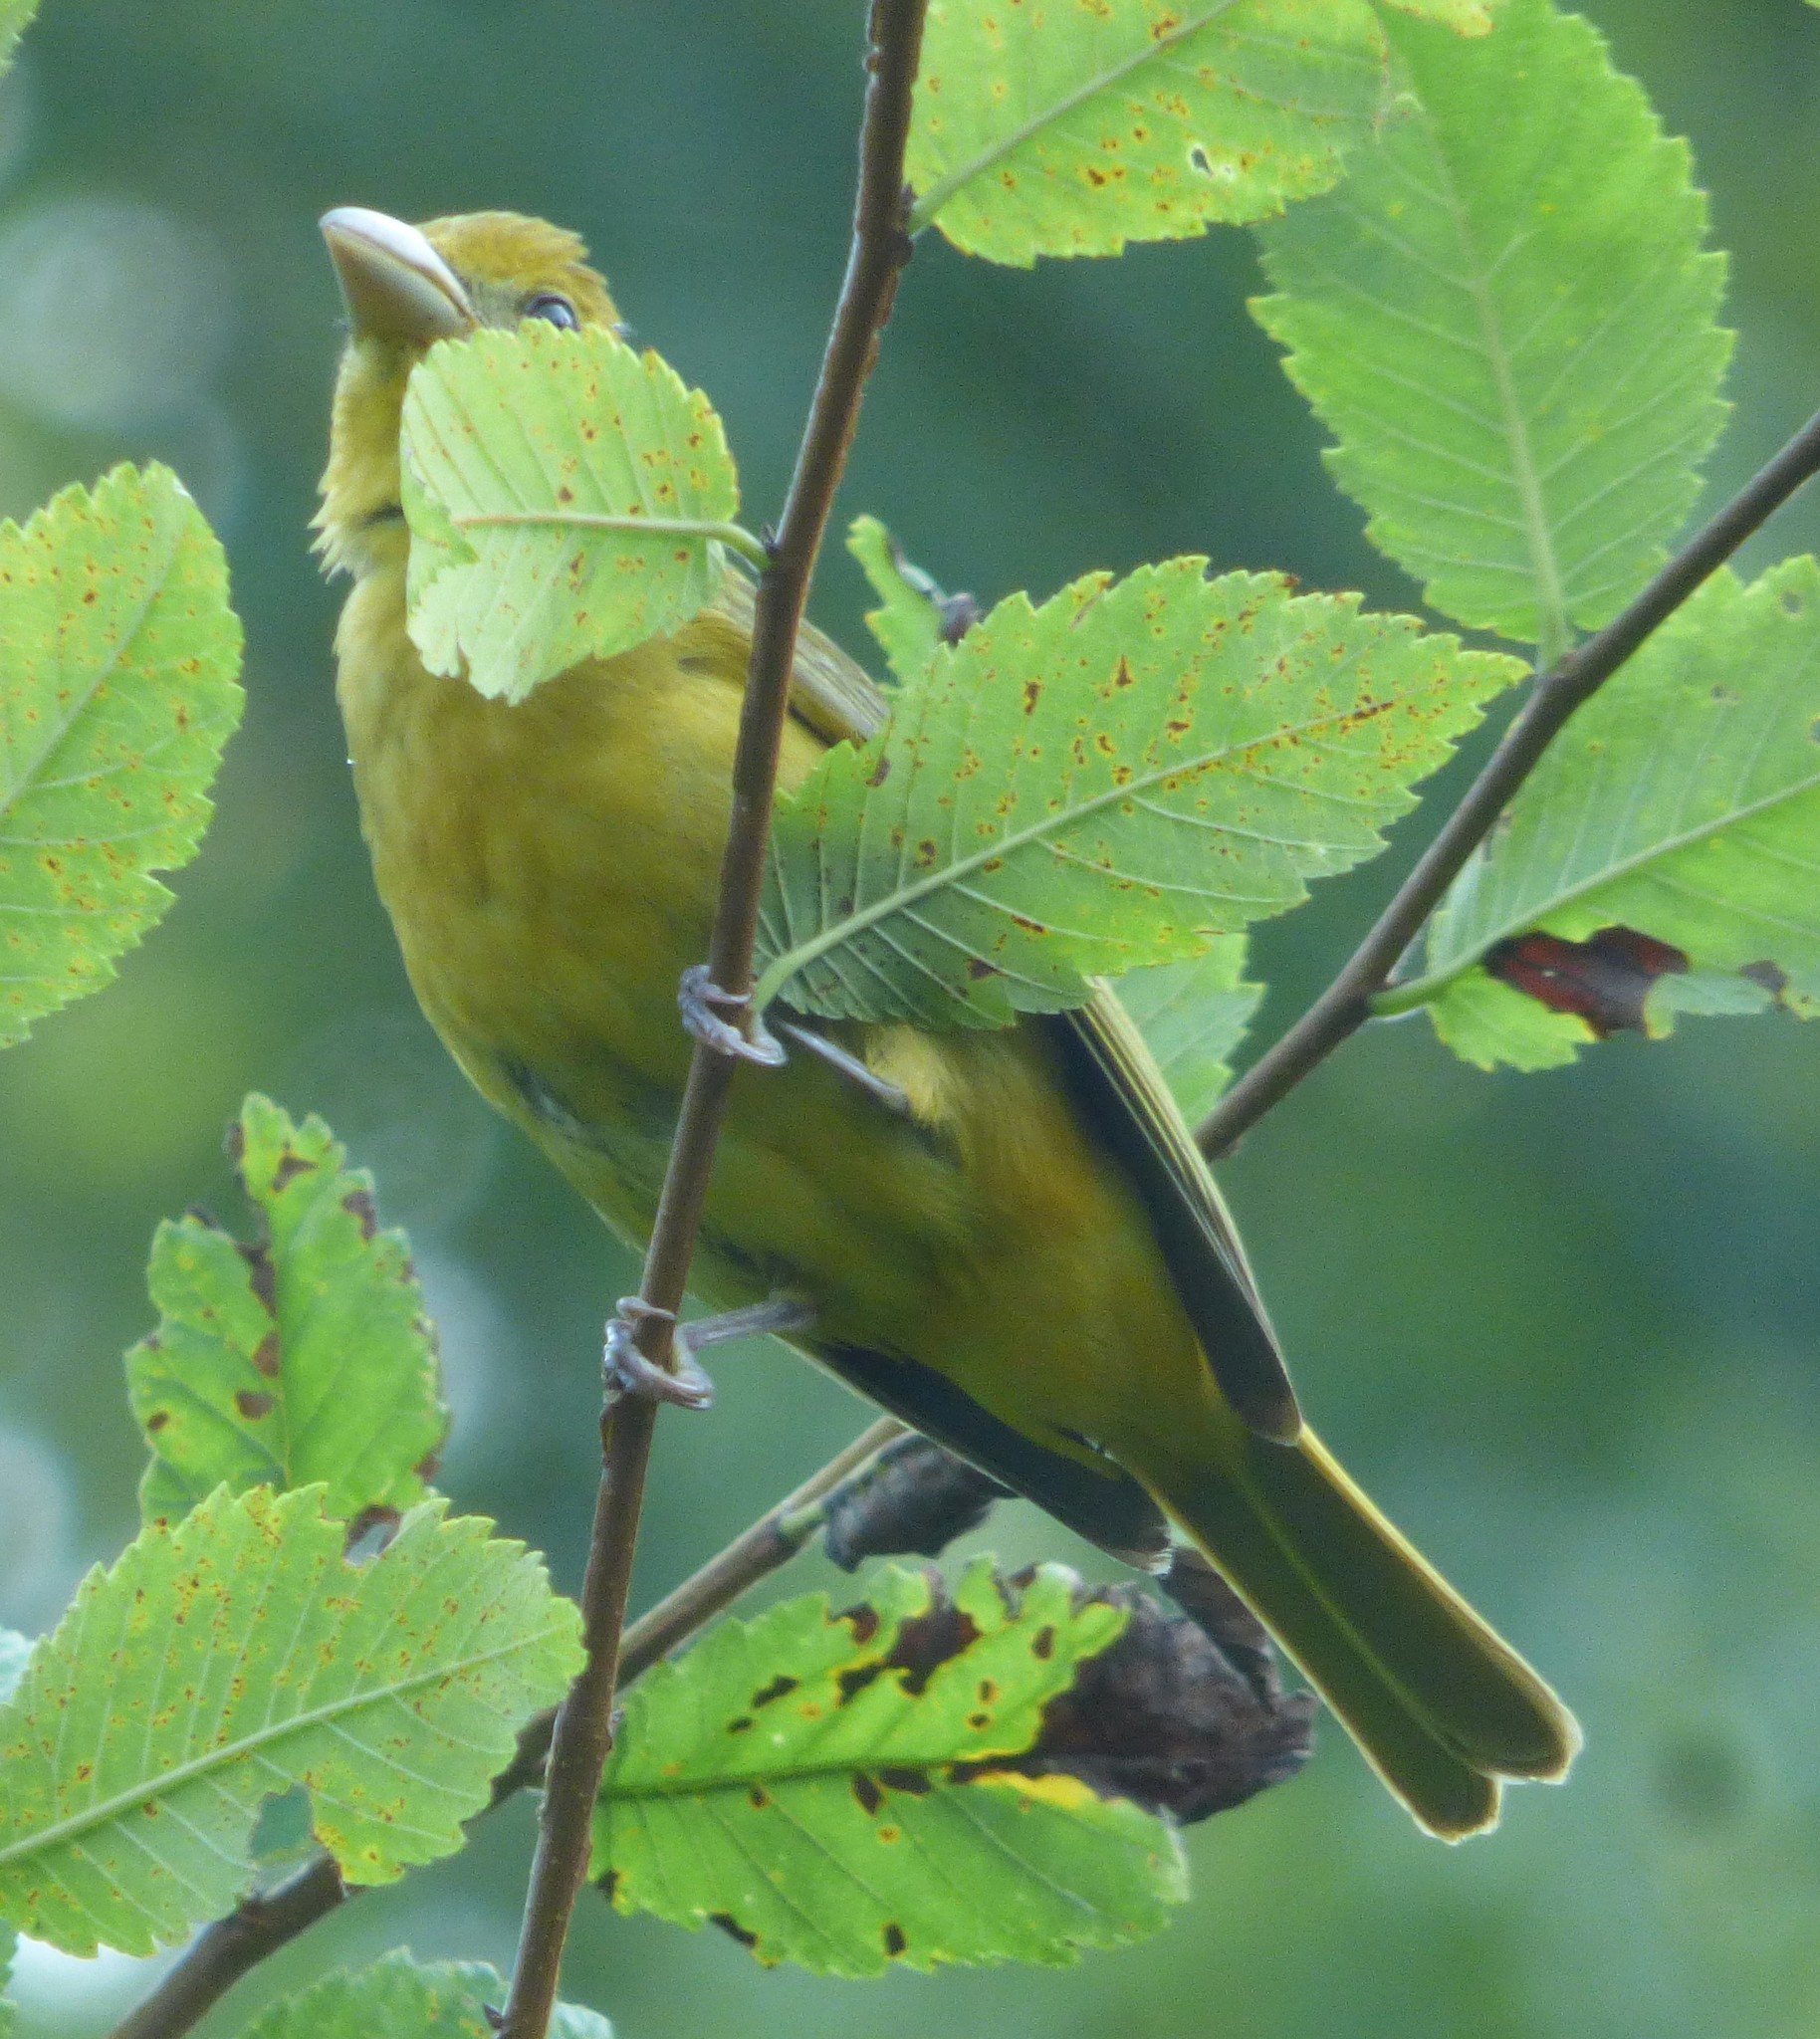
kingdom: Animalia
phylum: Chordata
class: Aves
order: Passeriformes
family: Cardinalidae
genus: Piranga
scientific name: Piranga rubra
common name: Summer tanager
